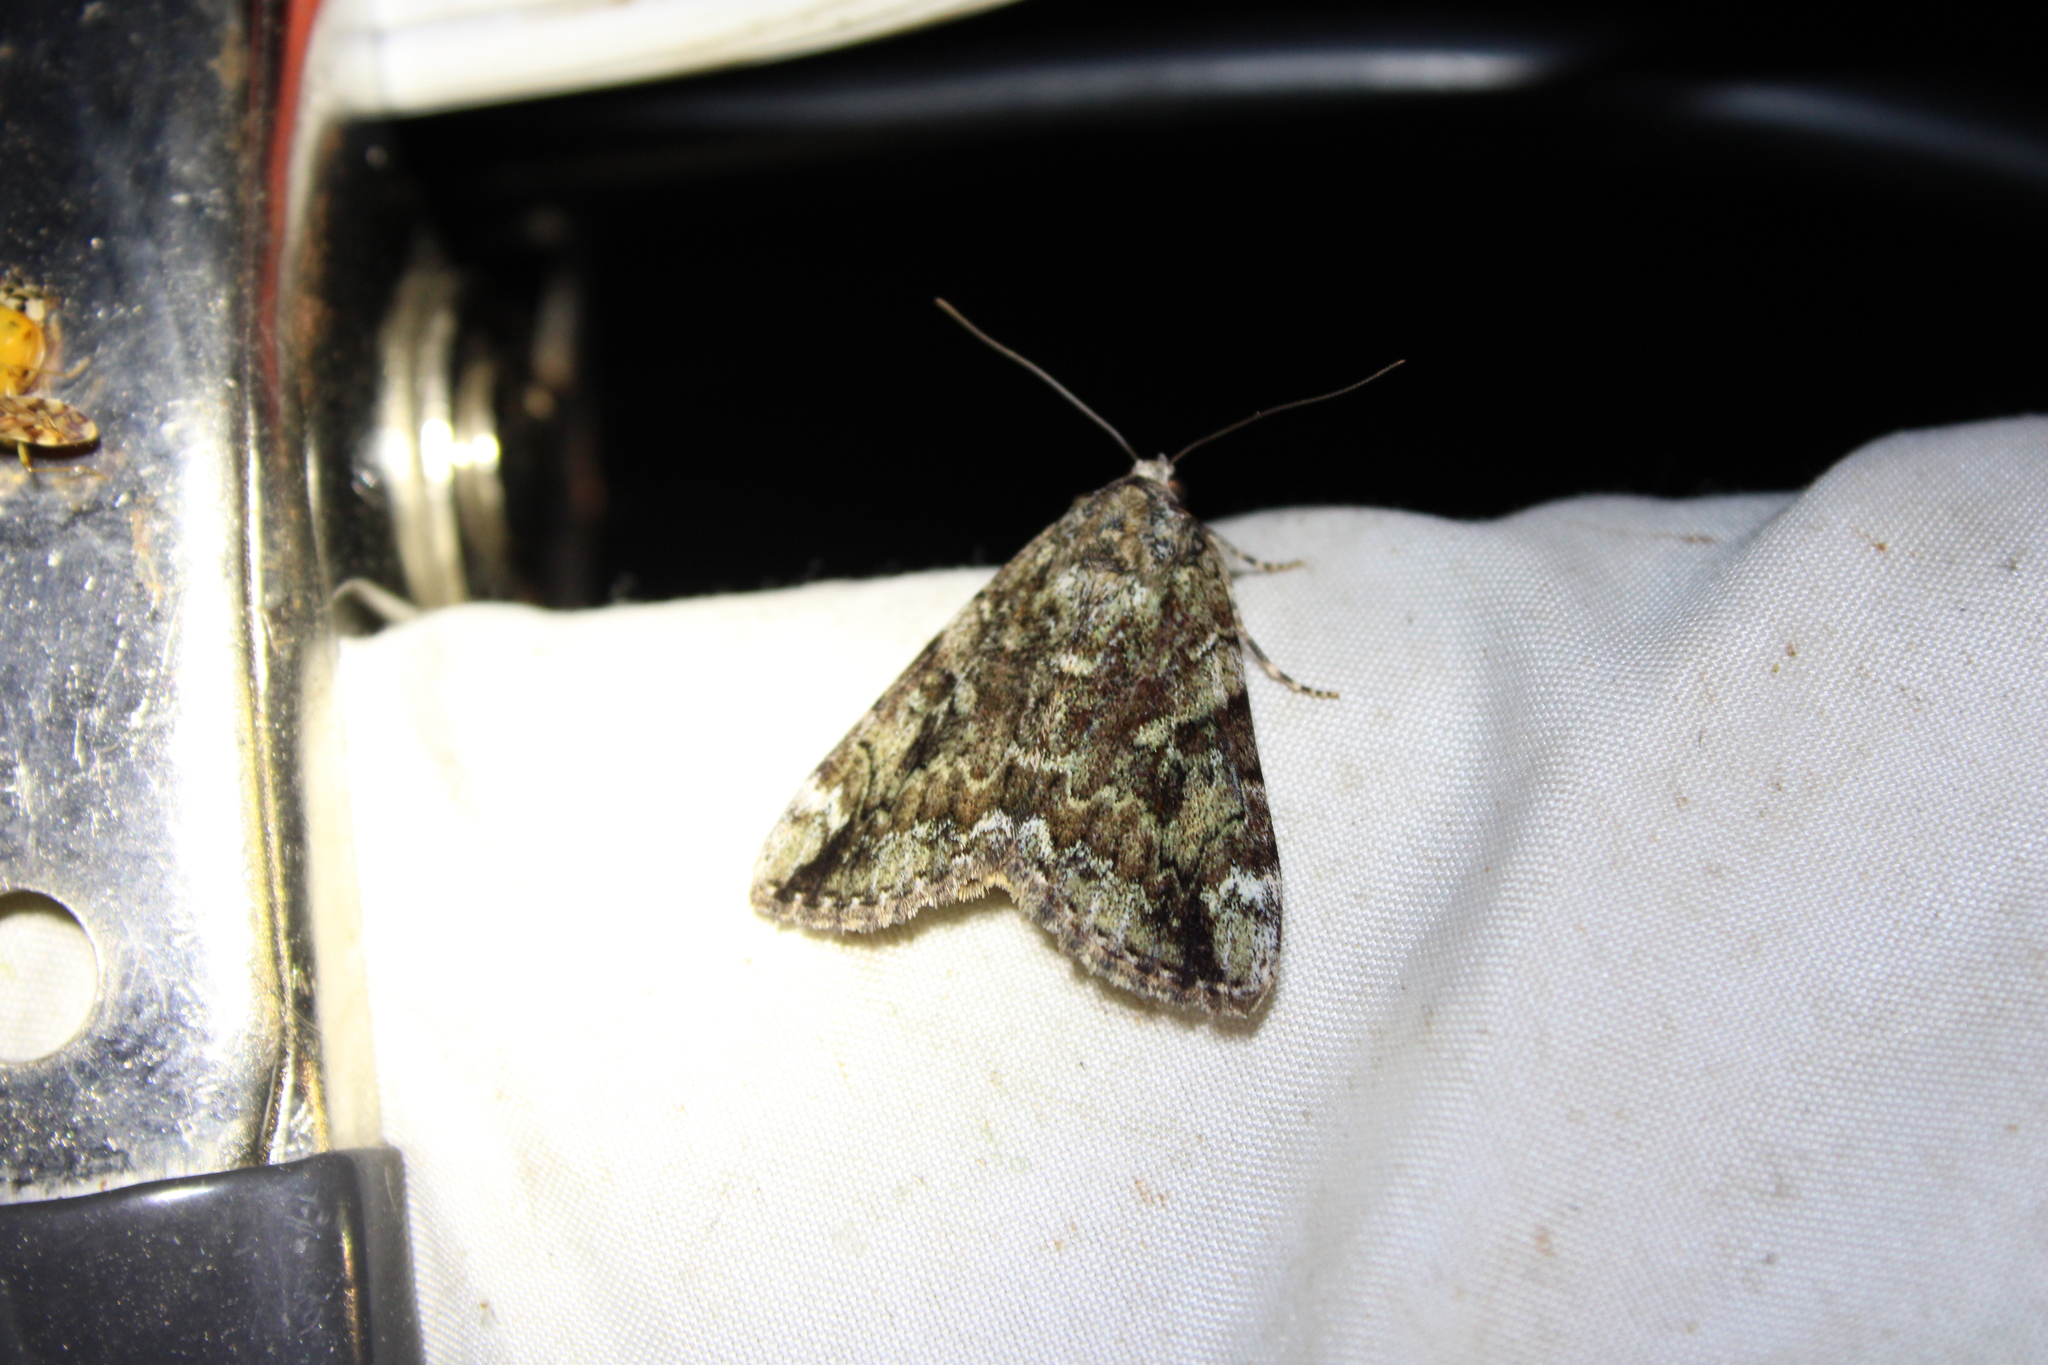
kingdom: Animalia
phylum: Arthropoda
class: Insecta
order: Lepidoptera
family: Erebidae
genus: Catocala
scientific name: Catocala micronympha
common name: Little nymph underwing
